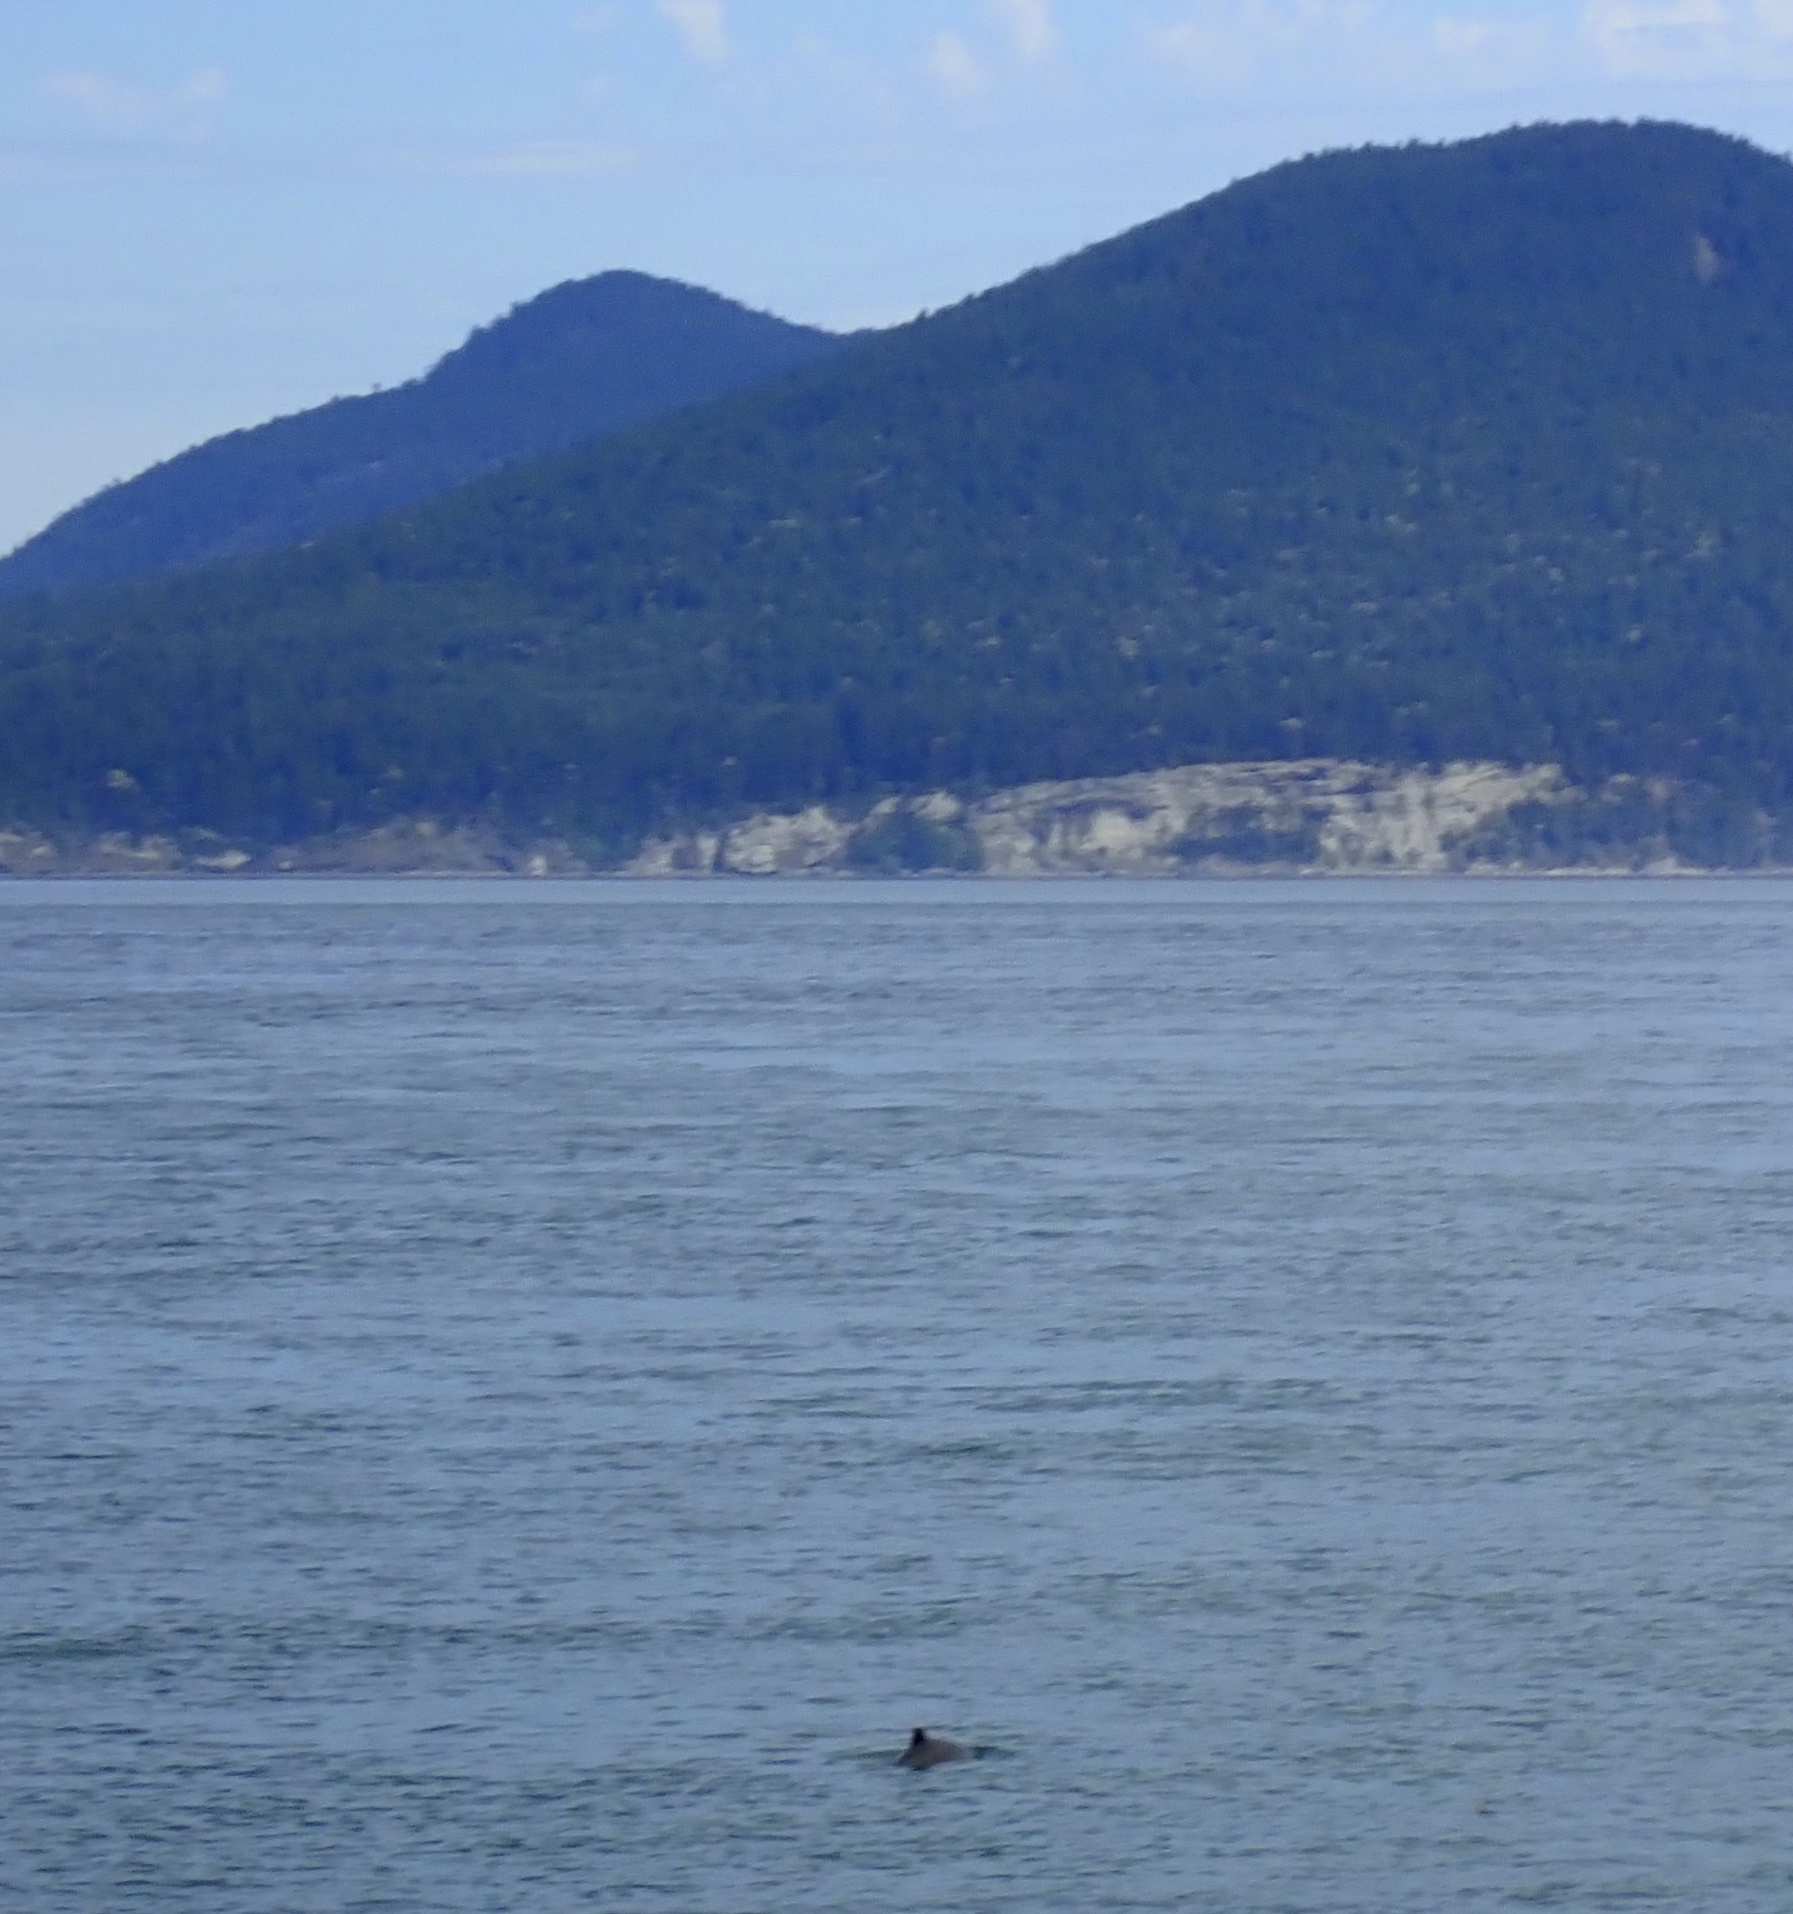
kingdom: Animalia
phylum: Chordata
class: Mammalia
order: Cetacea
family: Phocoenidae
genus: Phocoena
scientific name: Phocoena phocoena
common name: Harbor porpoise
